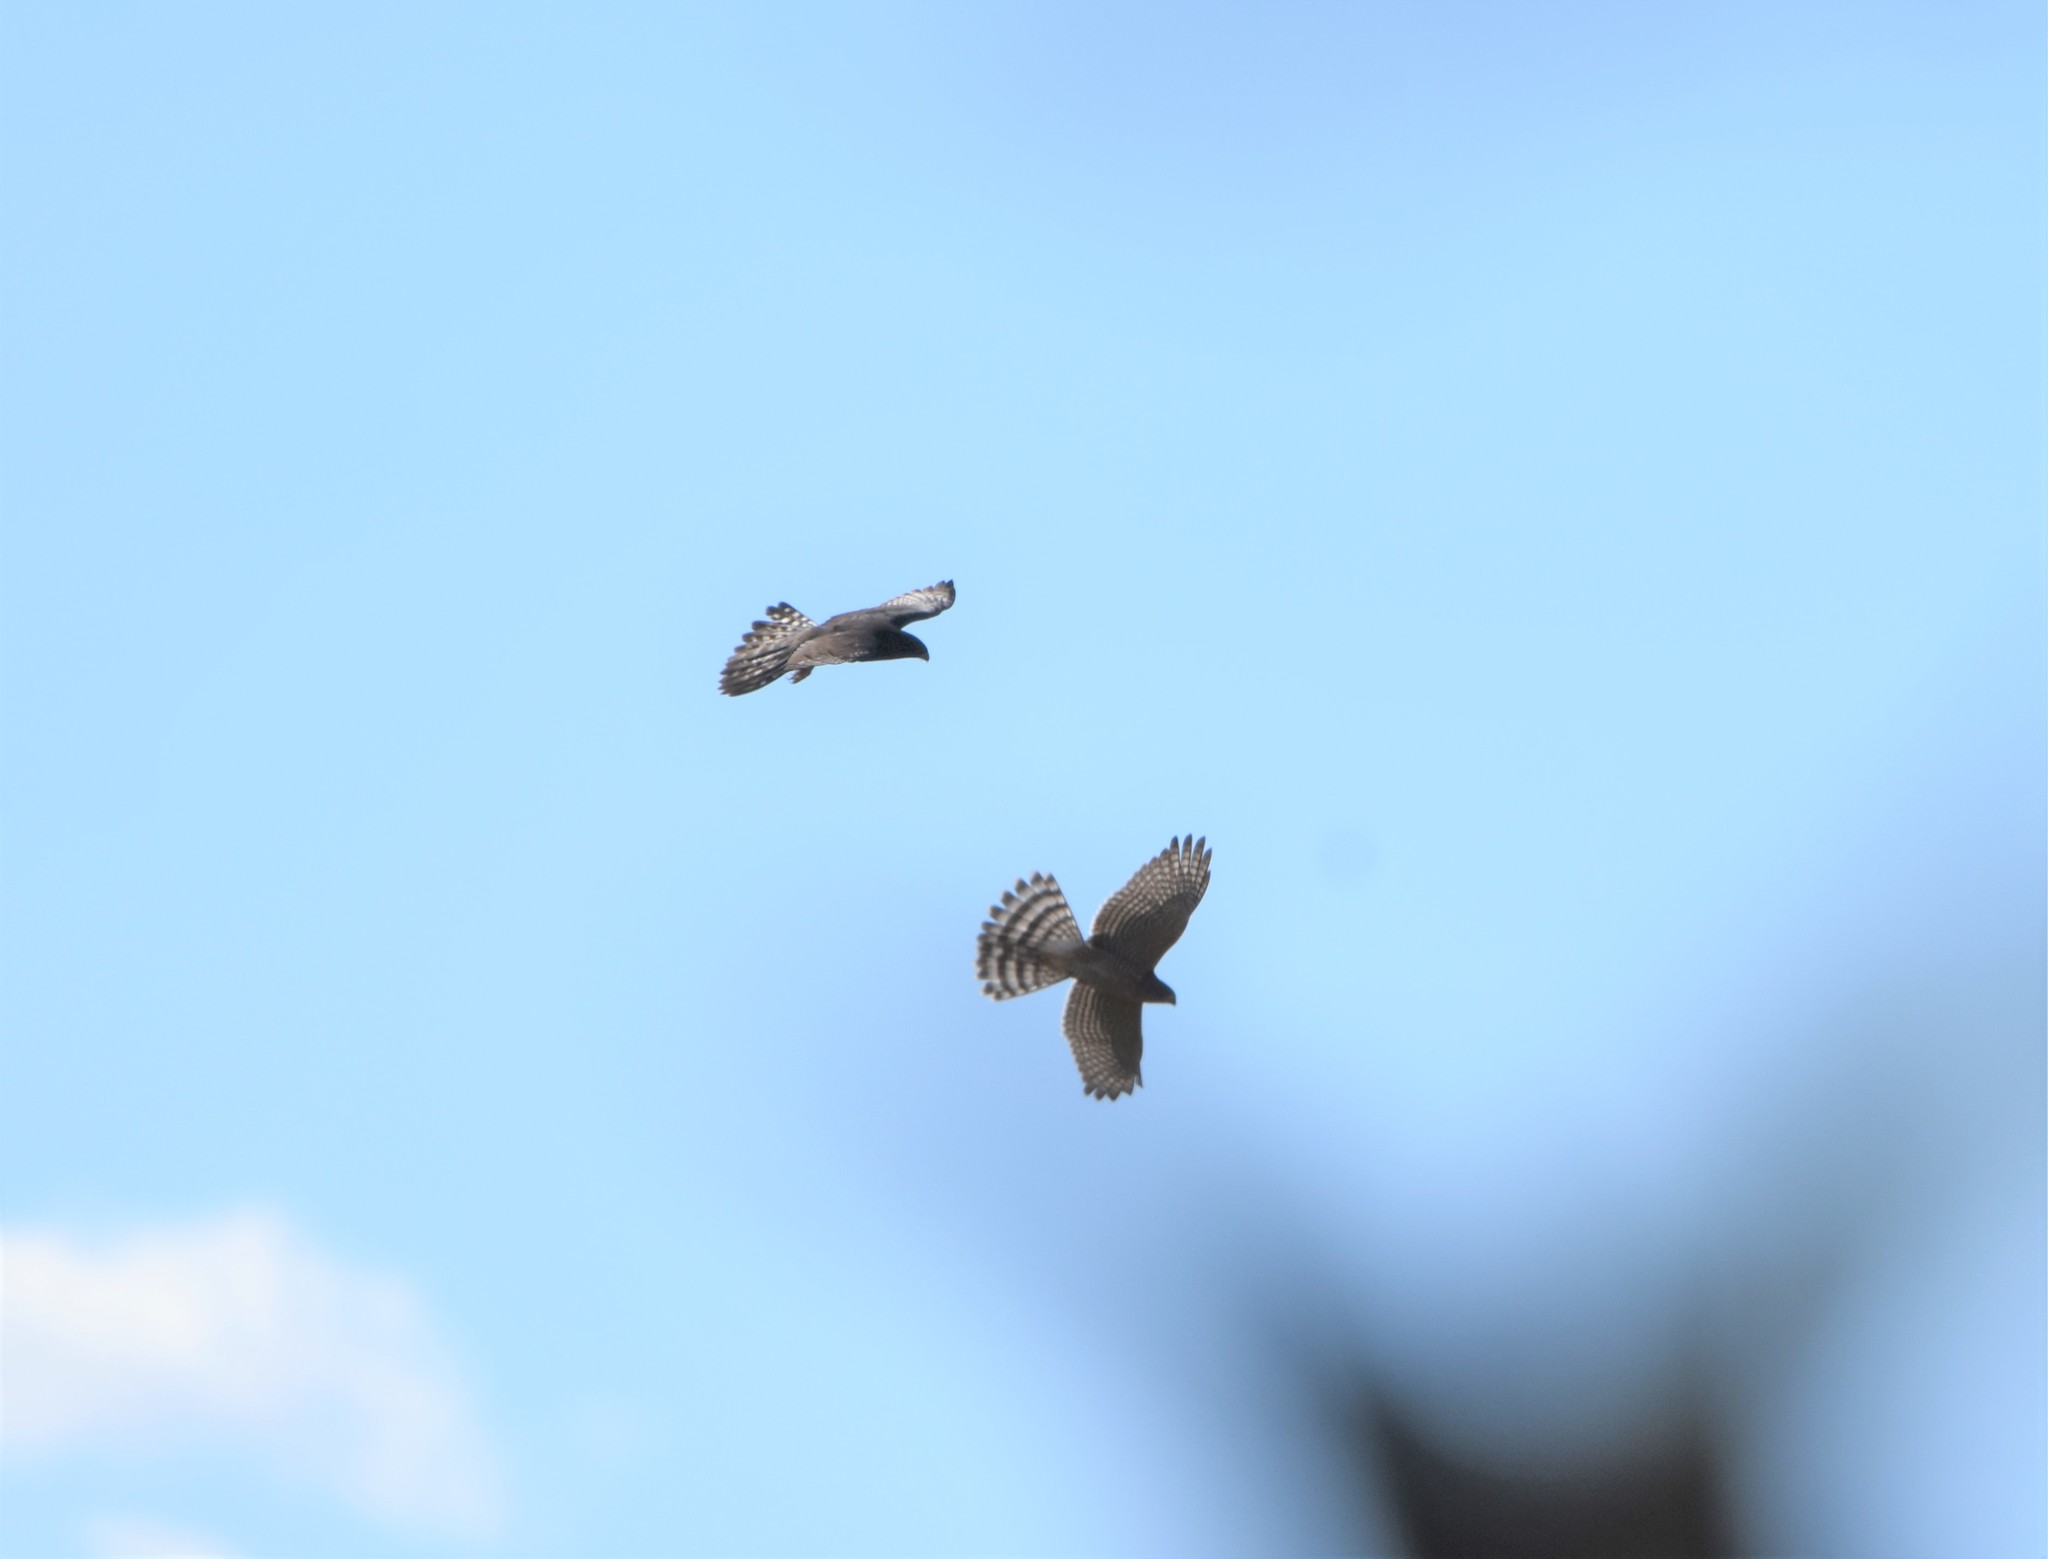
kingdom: Animalia
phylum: Chordata
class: Aves
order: Accipitriformes
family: Accipitridae
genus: Micronisus
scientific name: Micronisus gabar
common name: Gabar goshawk
